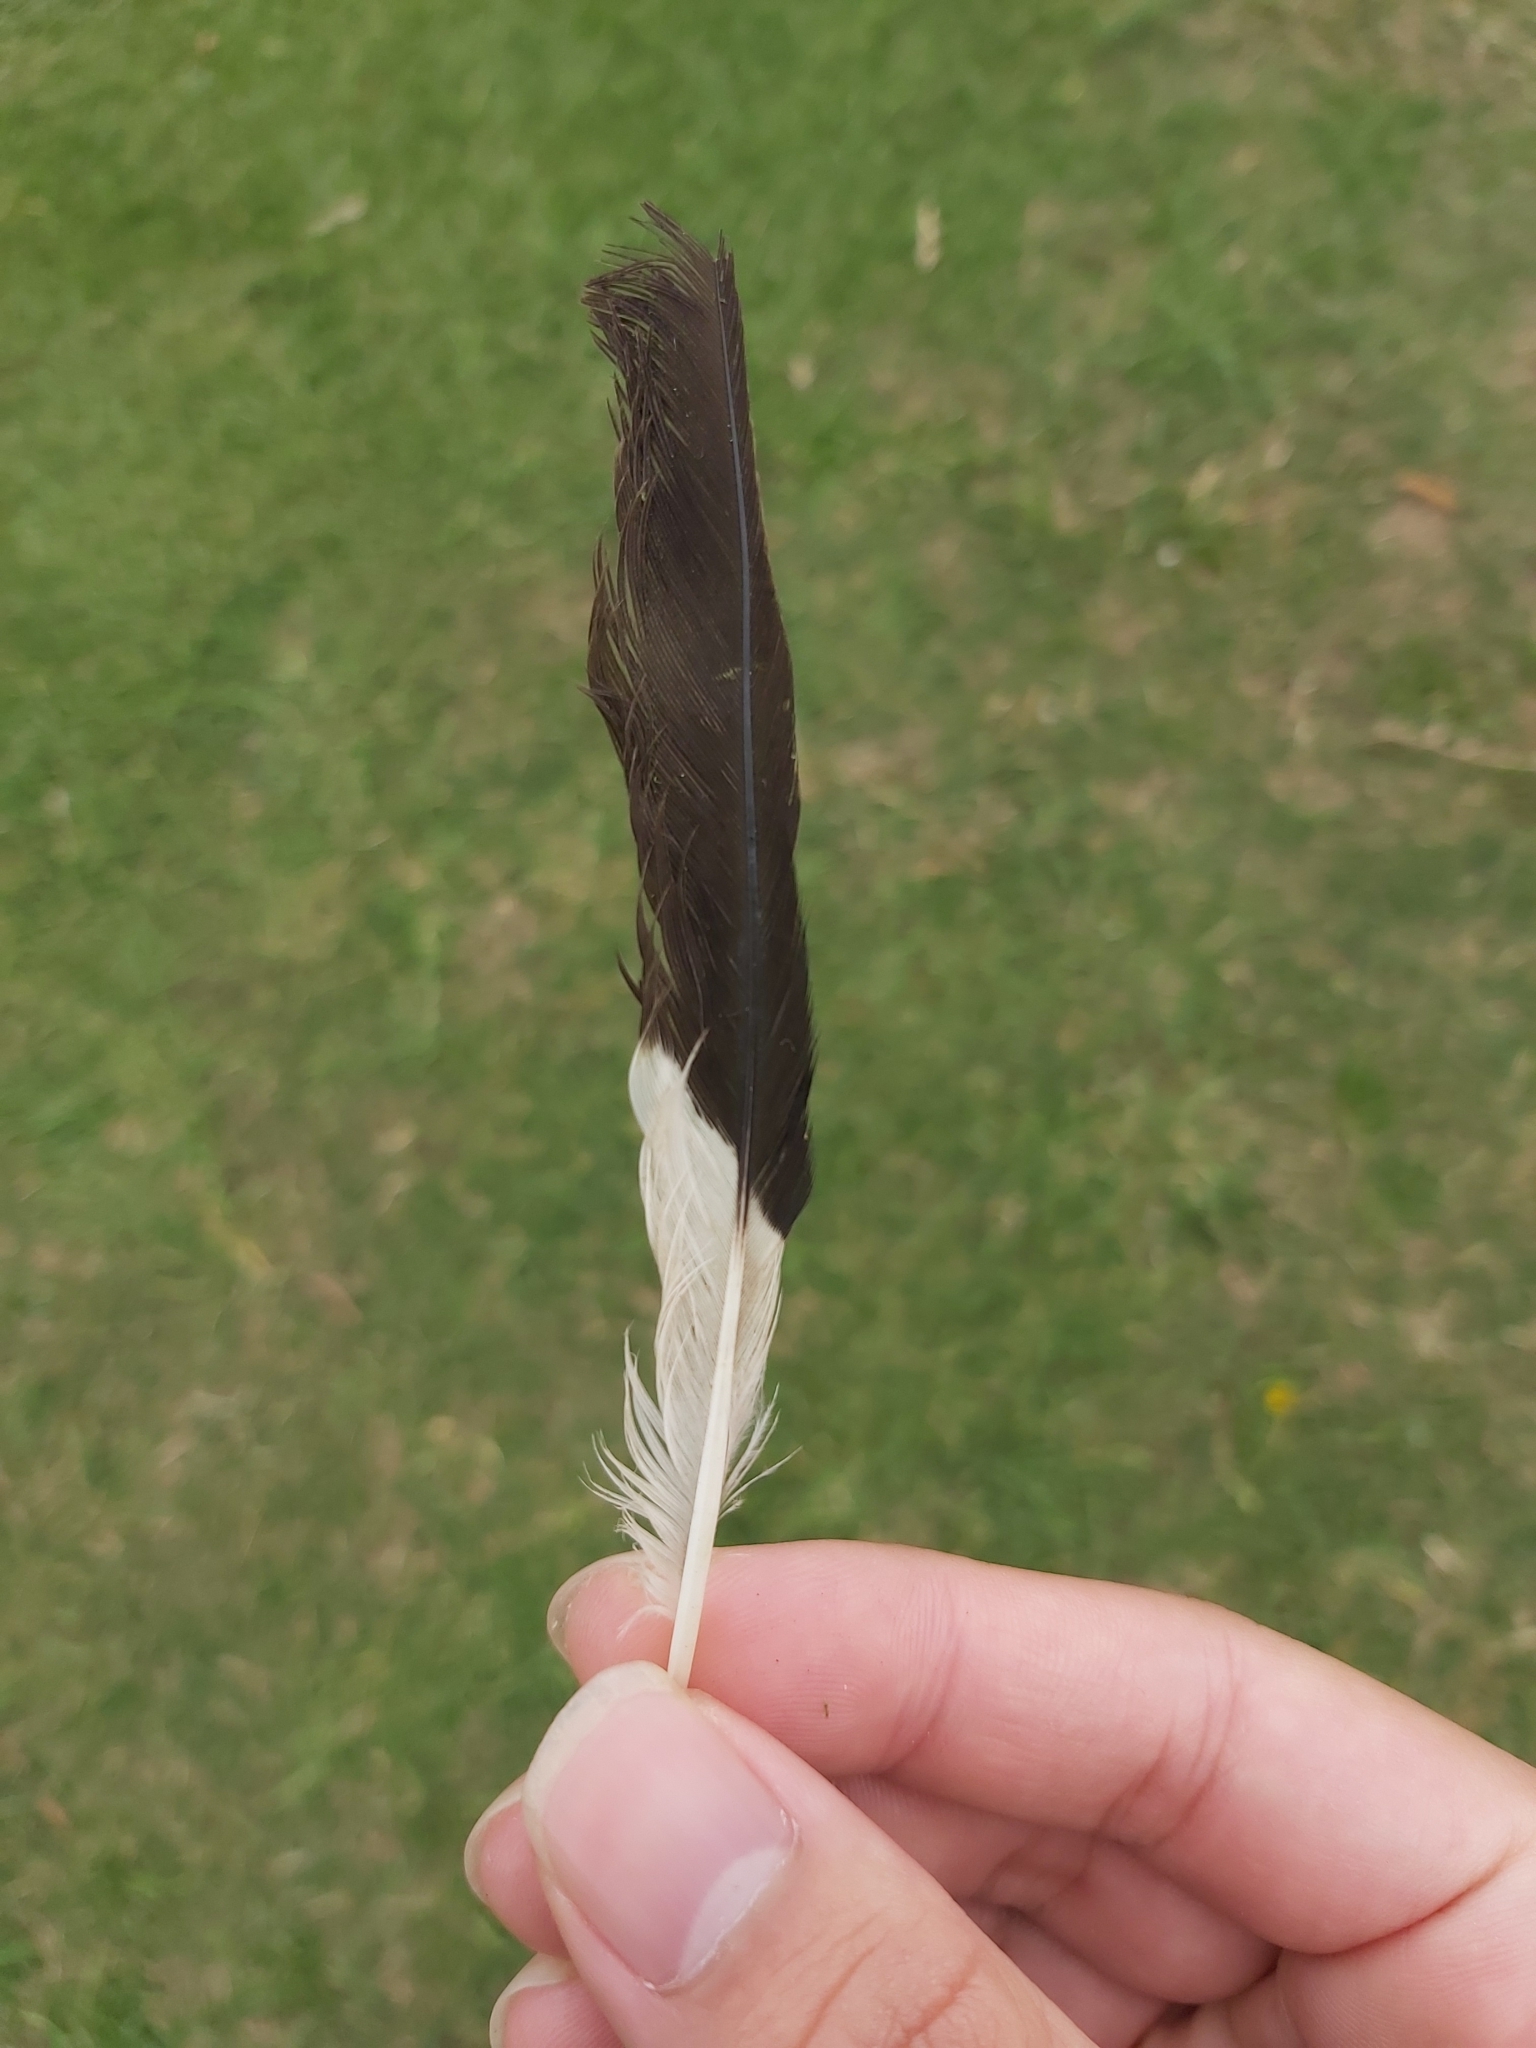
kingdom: Animalia
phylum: Chordata
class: Aves
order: Passeriformes
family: Sturnidae
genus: Acridotheres
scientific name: Acridotheres tristis
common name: Common myna
